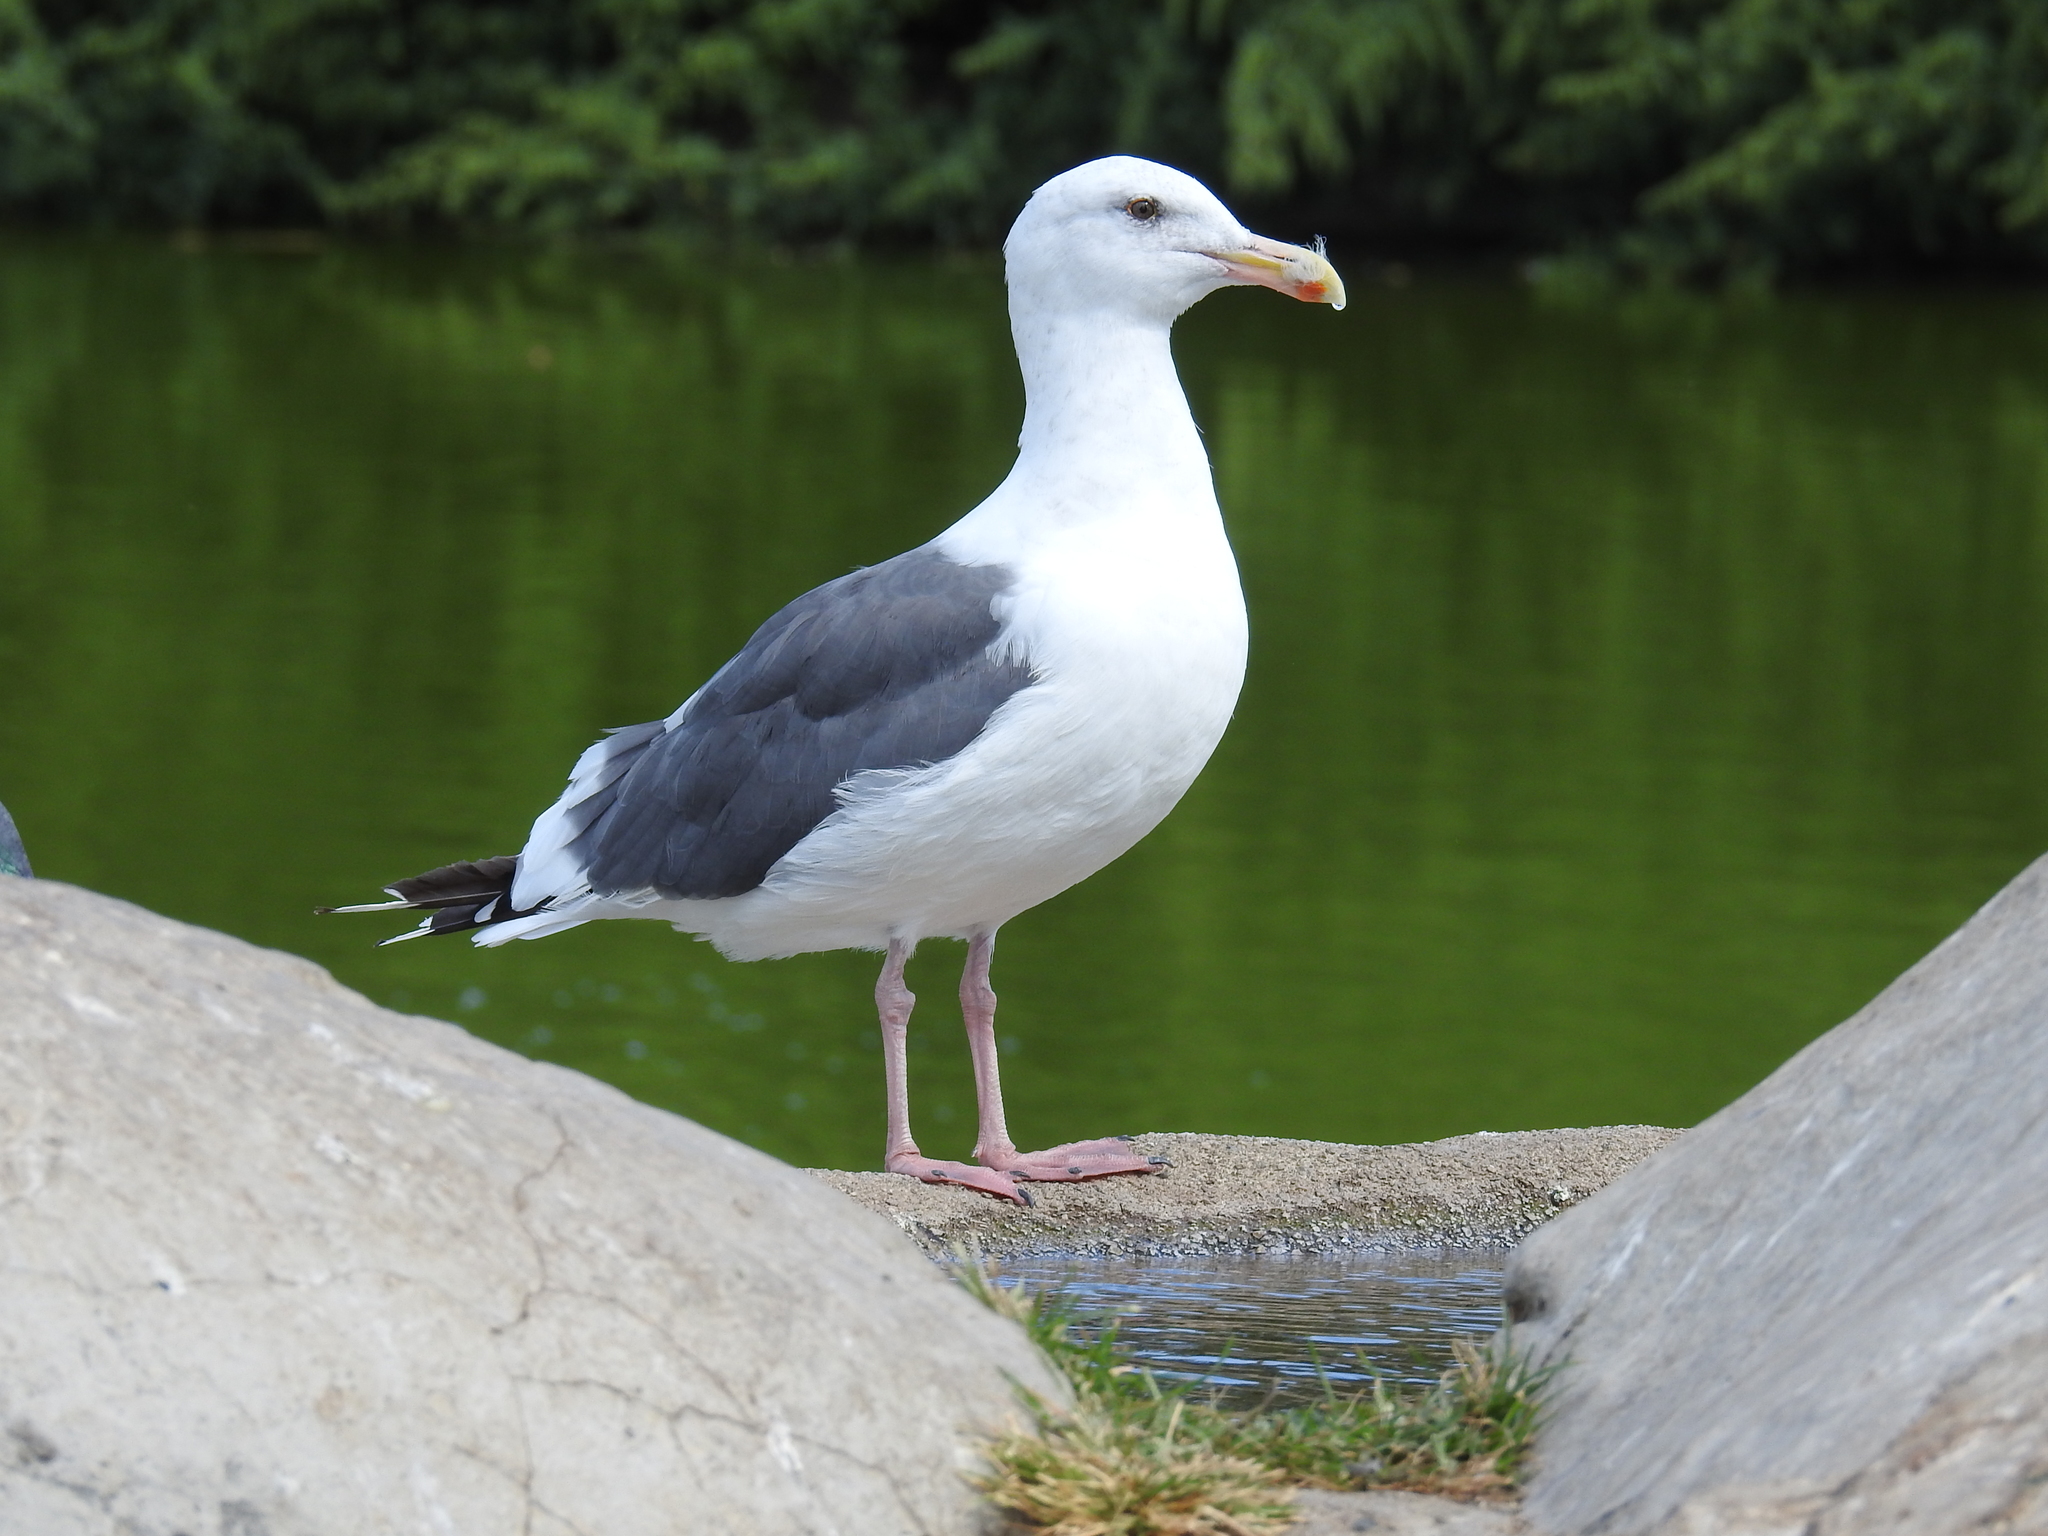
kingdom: Animalia
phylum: Chordata
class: Aves
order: Charadriiformes
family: Laridae
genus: Larus
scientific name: Larus occidentalis
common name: Western gull
